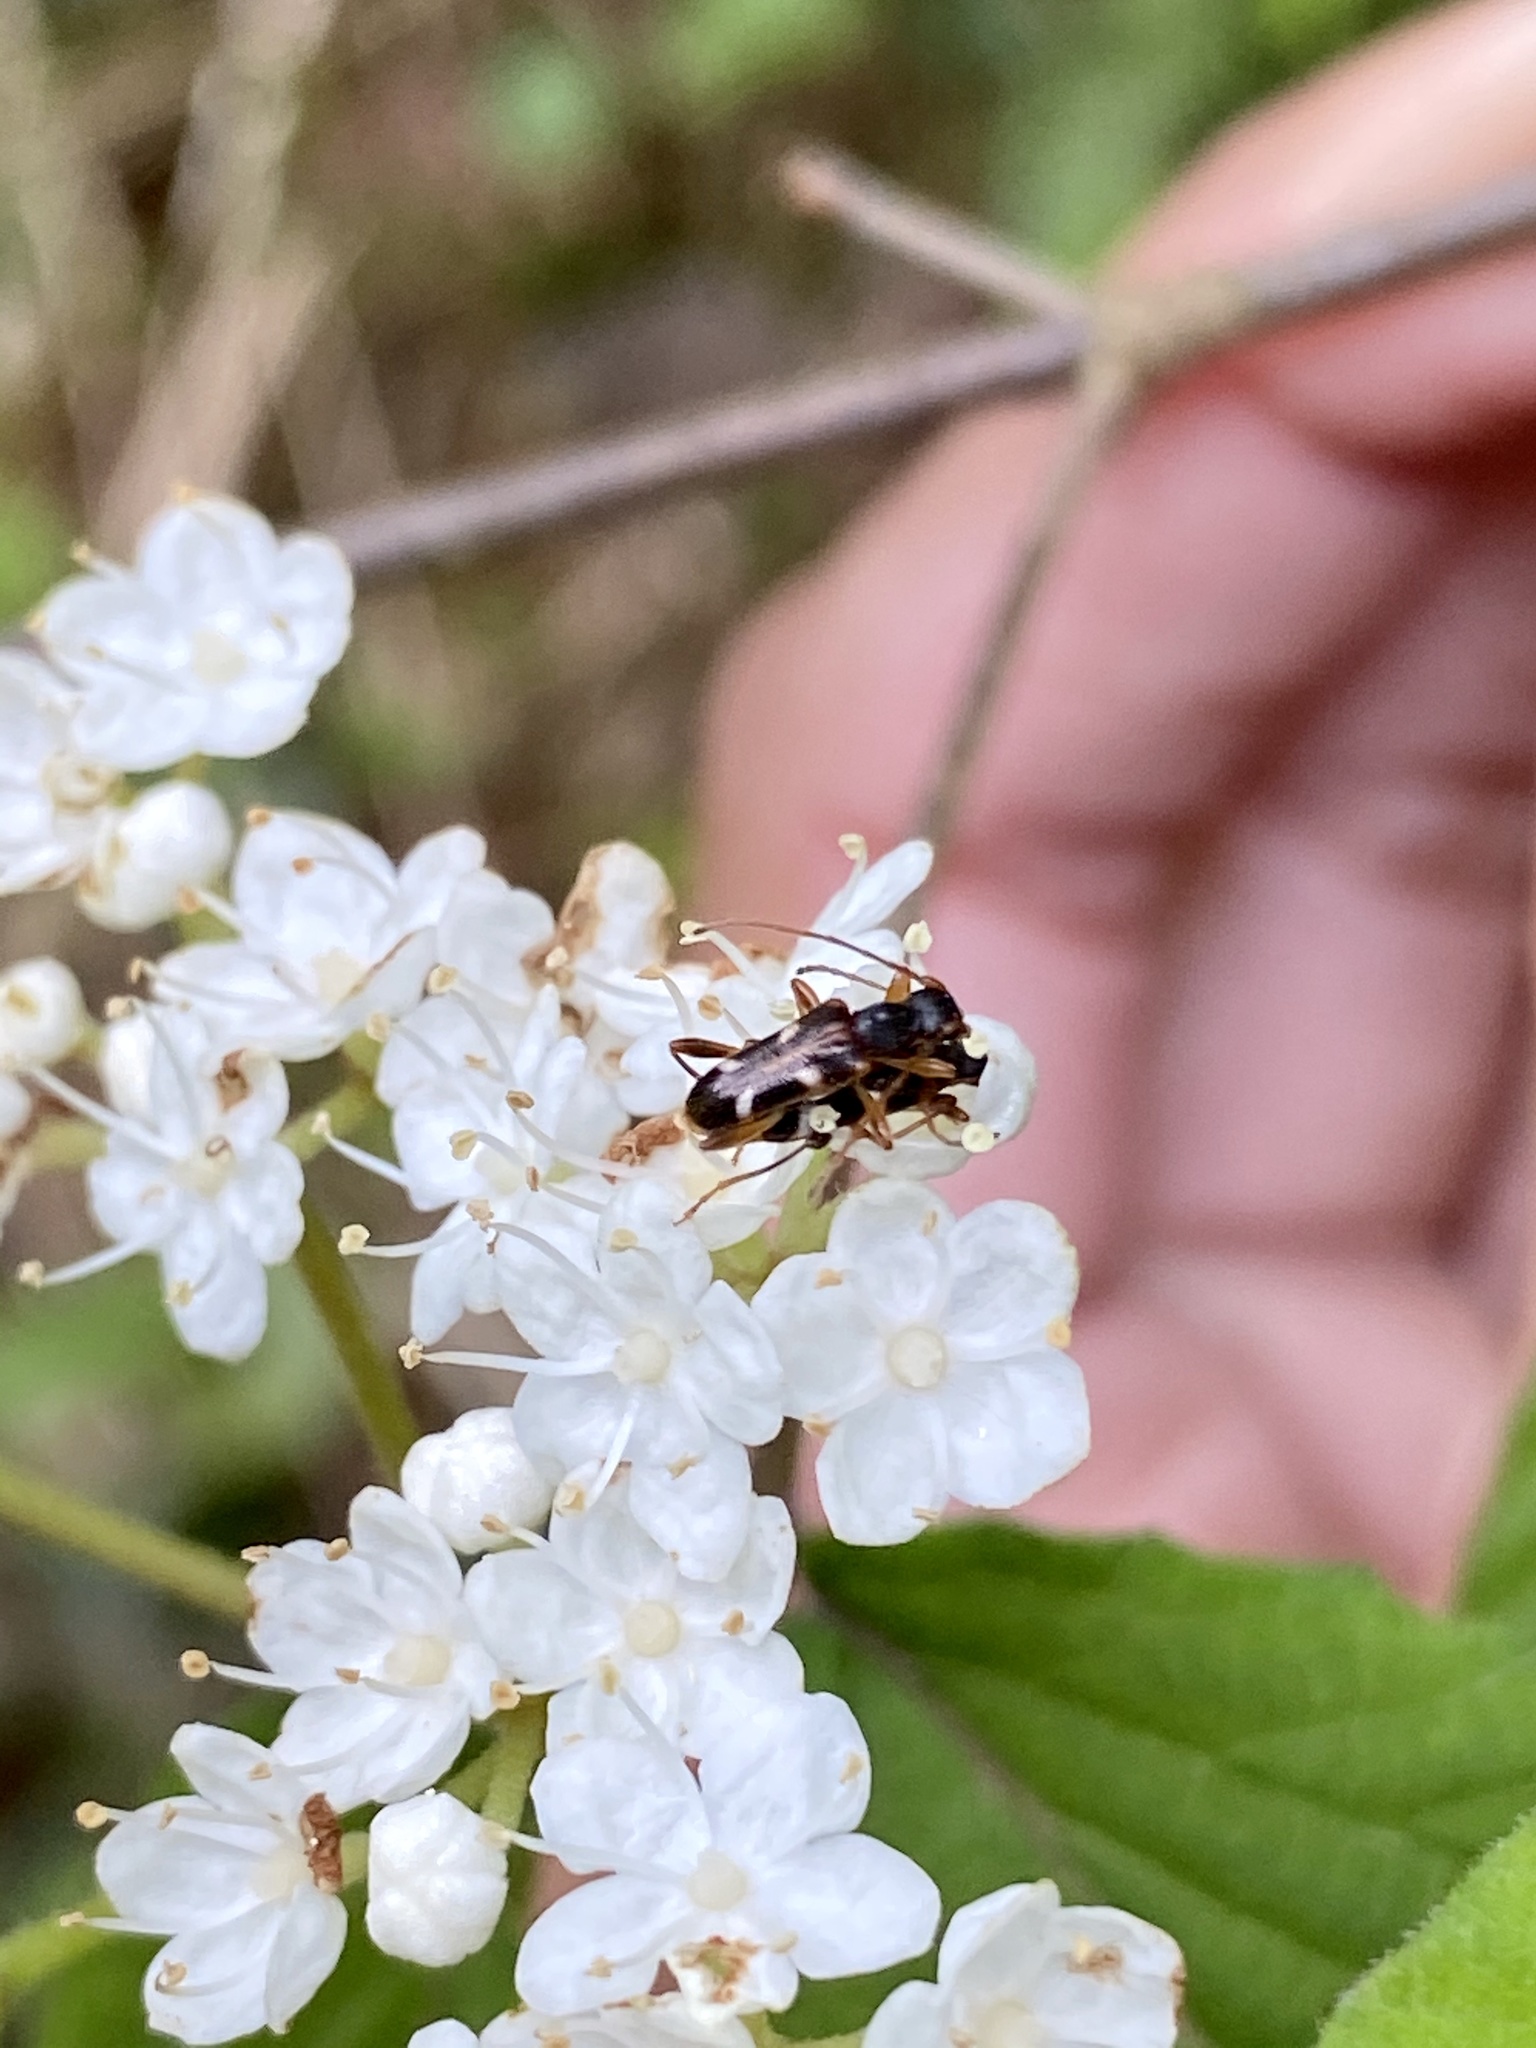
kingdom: Animalia
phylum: Arthropoda
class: Insecta
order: Coleoptera
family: Cerambycidae
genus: Pidonia
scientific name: Pidonia puziloi
